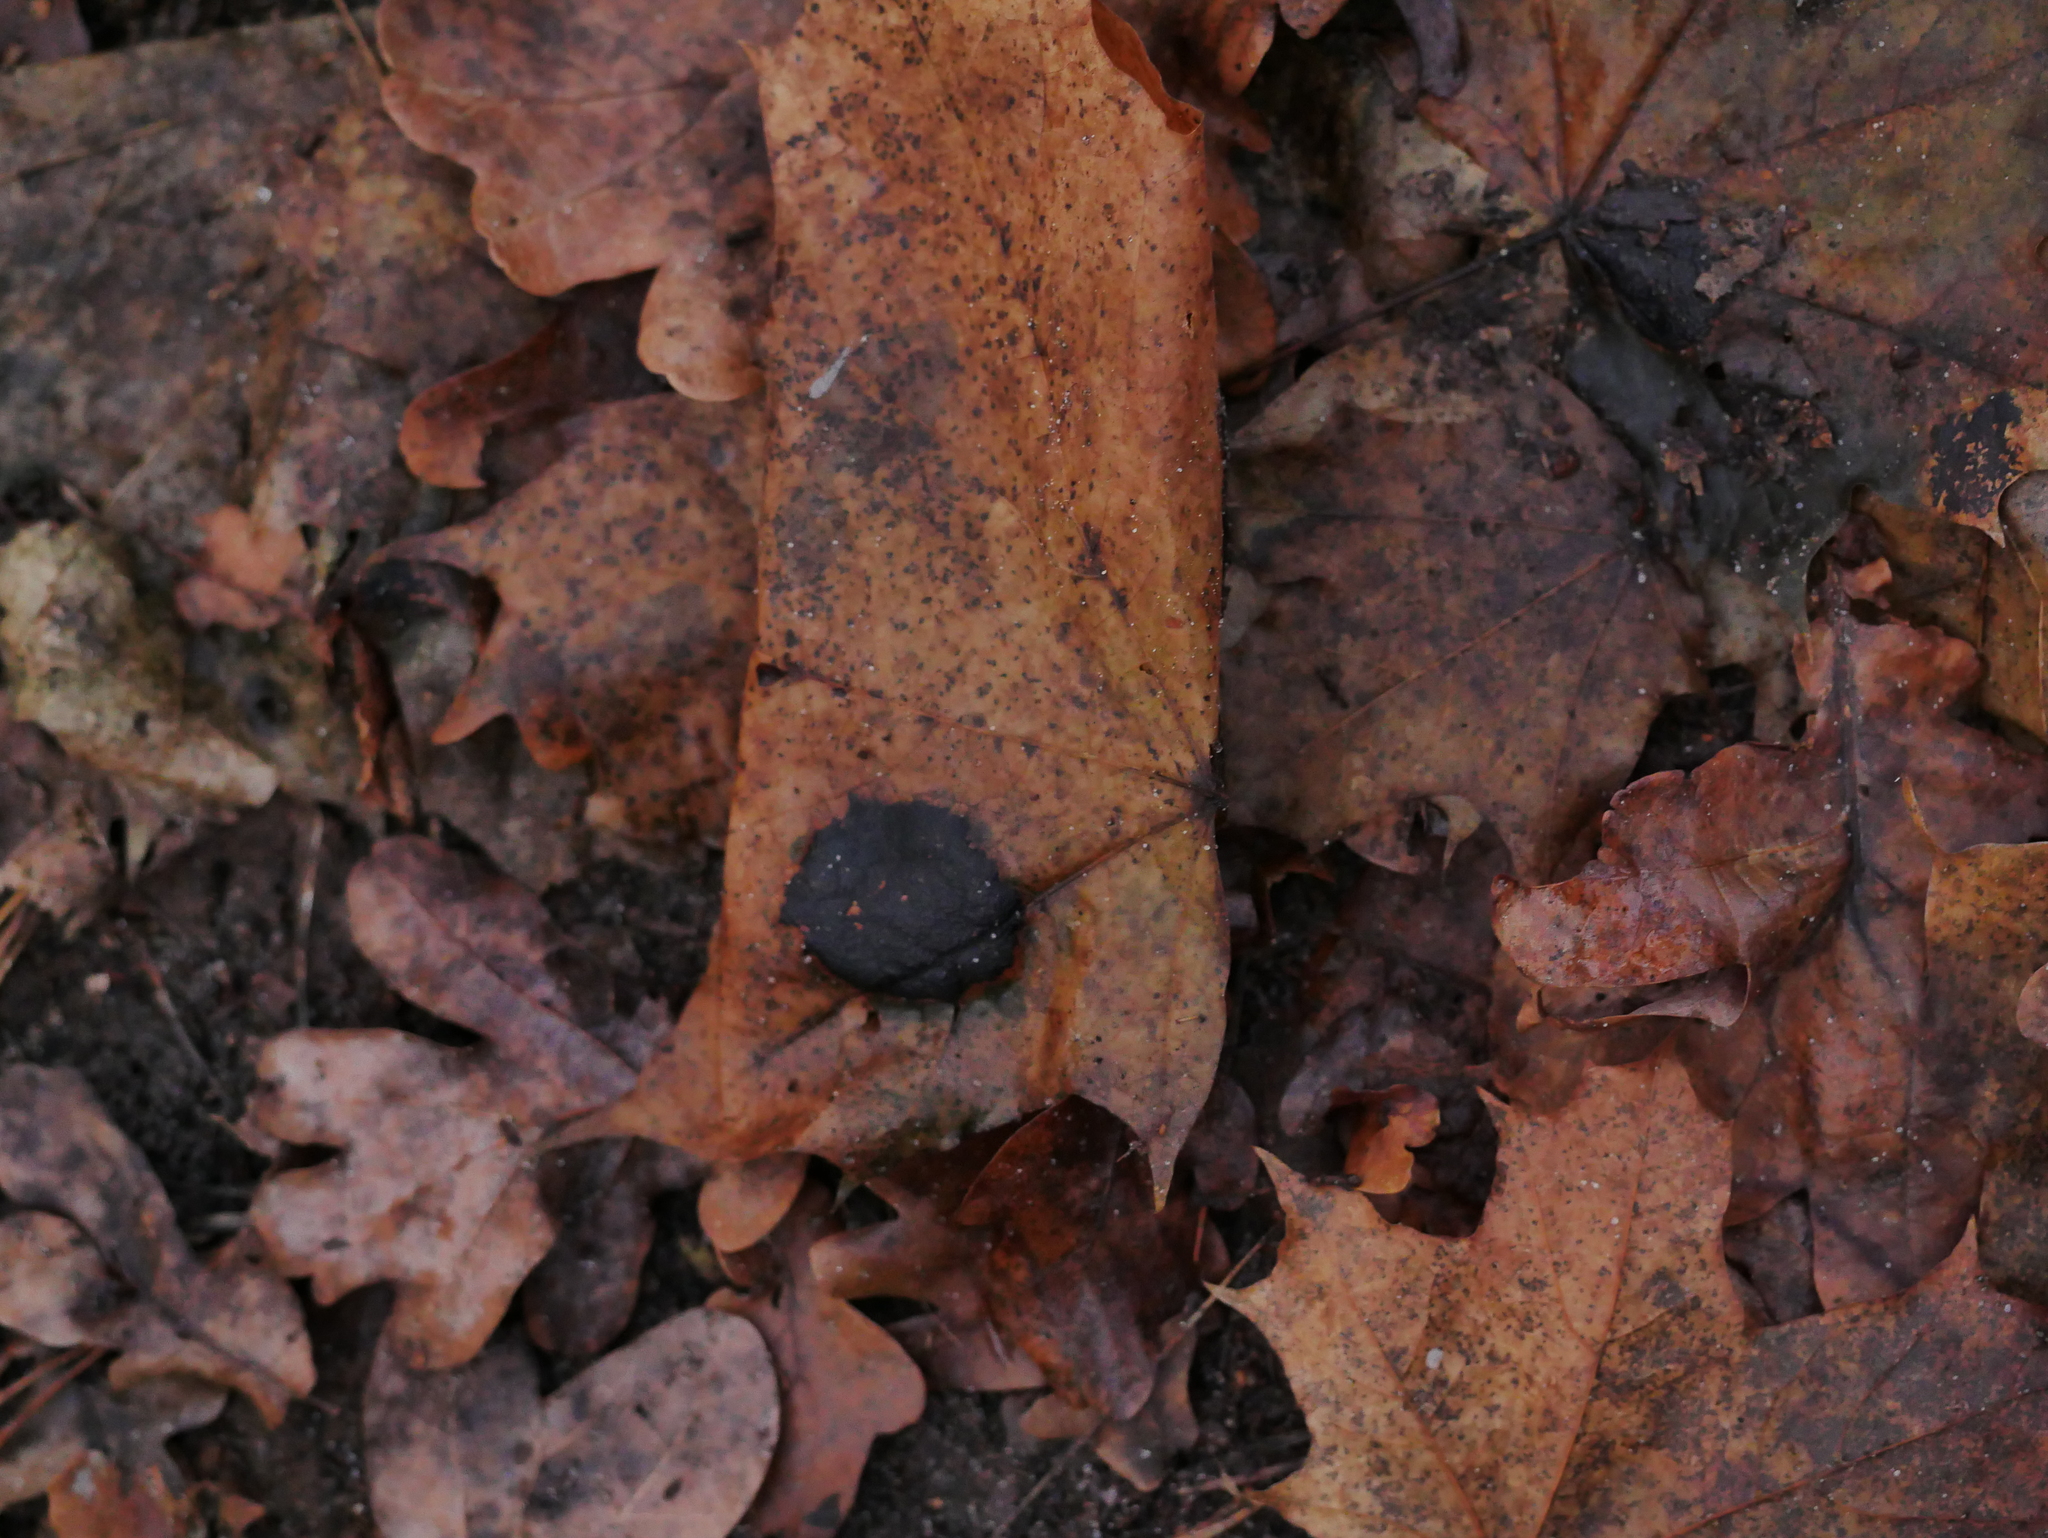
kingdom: Fungi
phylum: Ascomycota
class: Leotiomycetes
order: Rhytismatales
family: Rhytismataceae
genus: Rhytisma
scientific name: Rhytisma acerinum
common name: European tar spot
